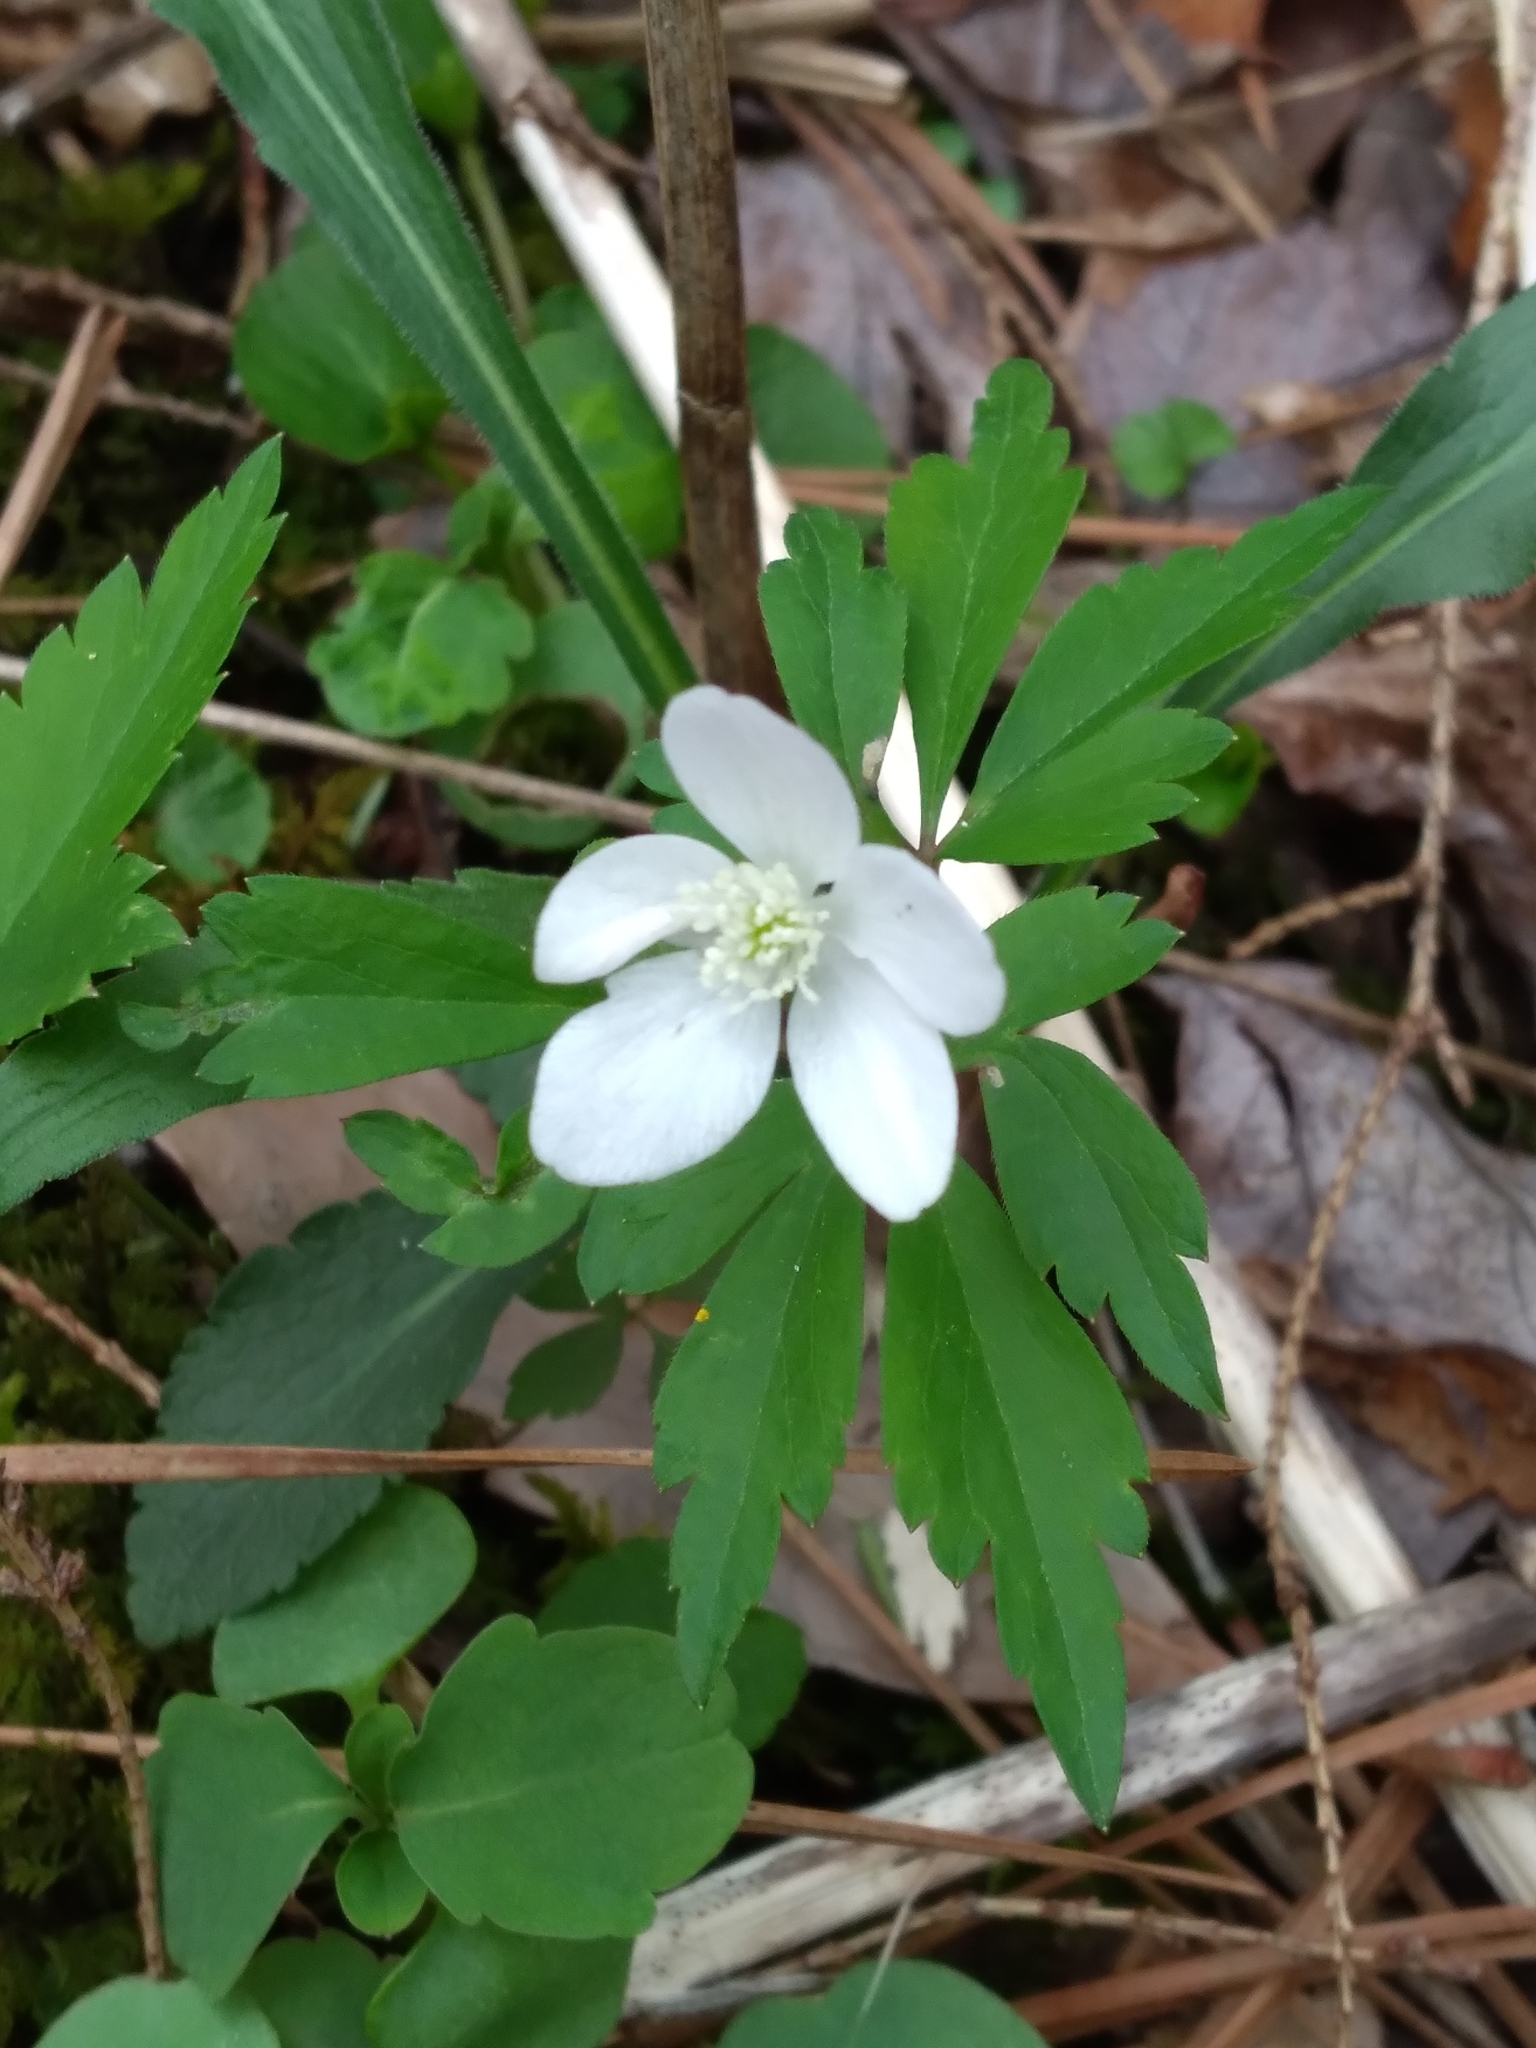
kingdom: Plantae
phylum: Tracheophyta
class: Magnoliopsida
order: Ranunculales
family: Ranunculaceae
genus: Anemone
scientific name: Anemone quinquefolia
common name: Wood anemone
